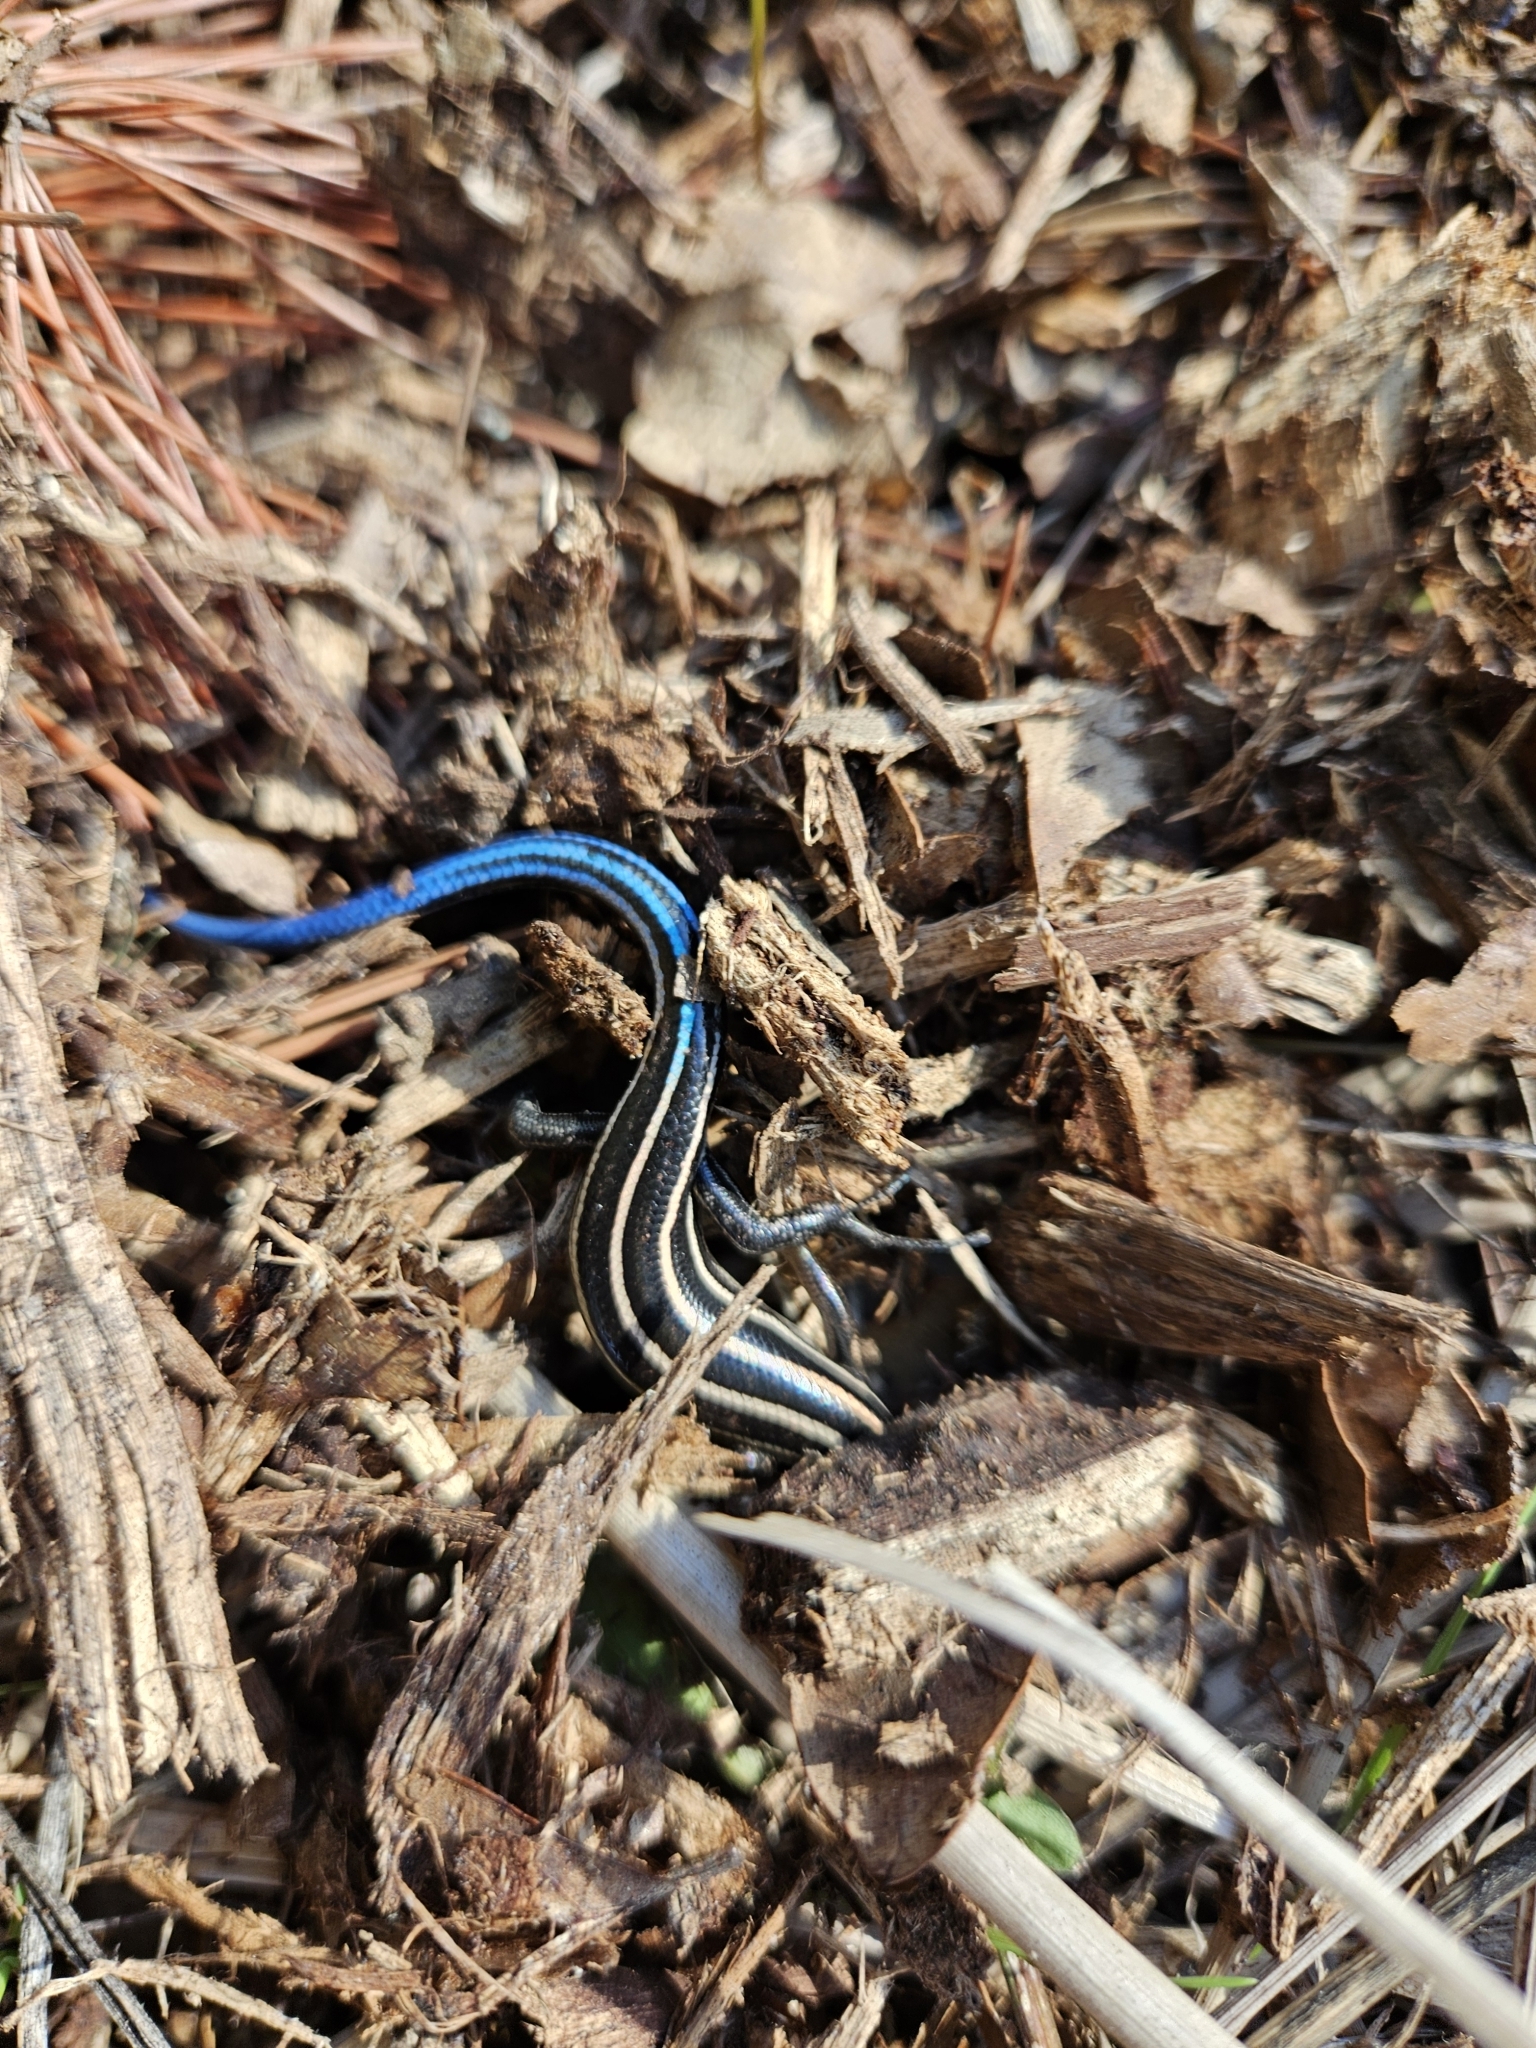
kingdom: Animalia
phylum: Chordata
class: Squamata
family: Scincidae
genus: Plestiodon
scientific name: Plestiodon fasciatus
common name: Five-lined skink
